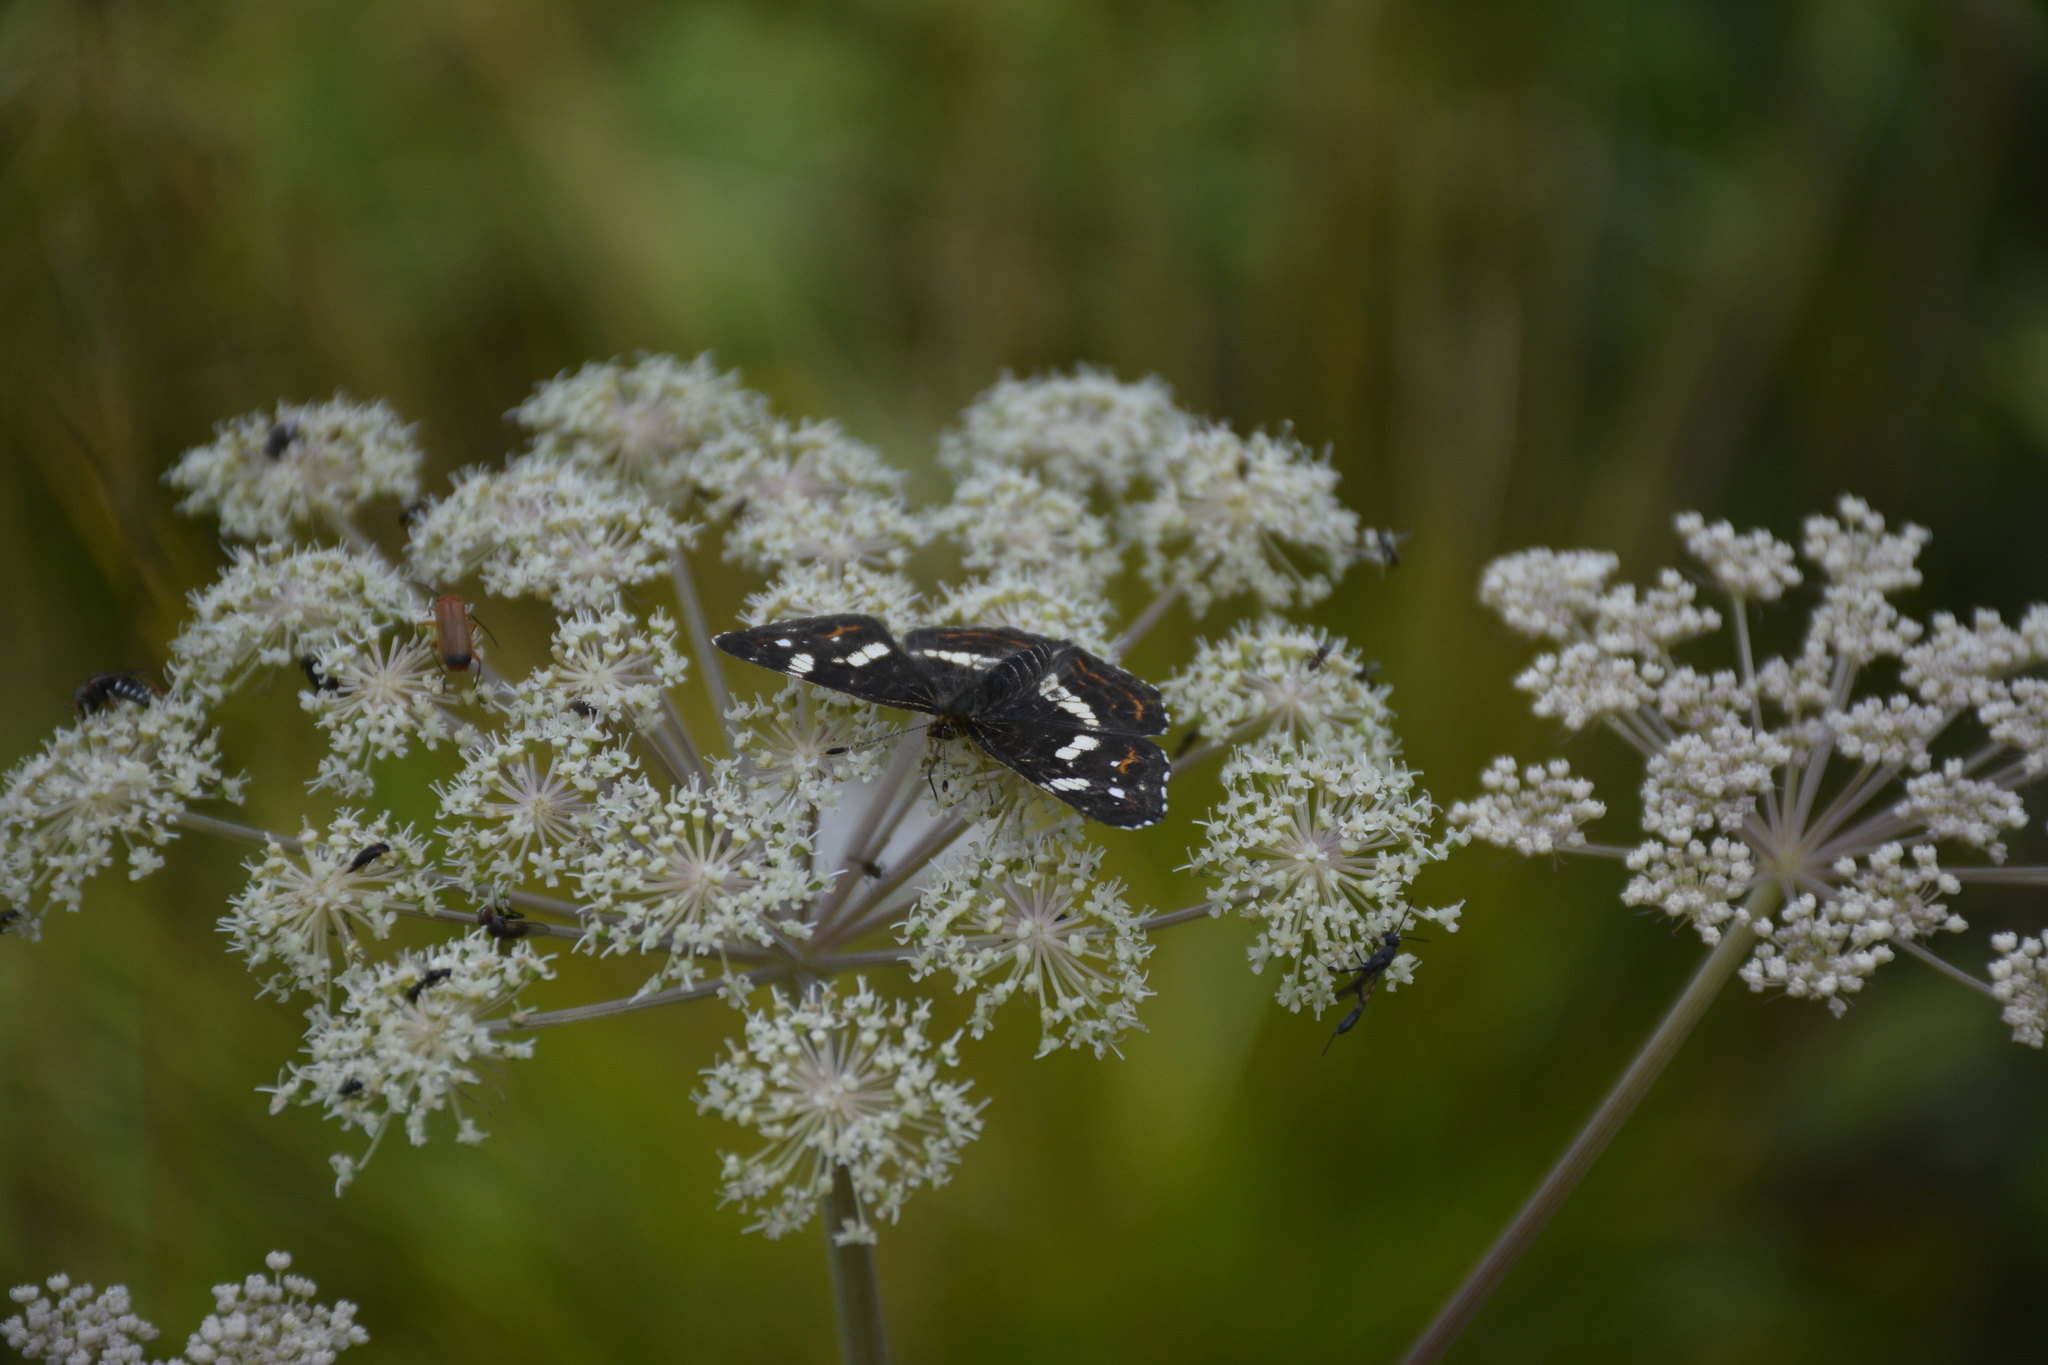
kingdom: Animalia
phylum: Arthropoda
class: Insecta
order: Lepidoptera
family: Nymphalidae
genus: Araschnia
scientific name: Araschnia levana
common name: Map butterfly
